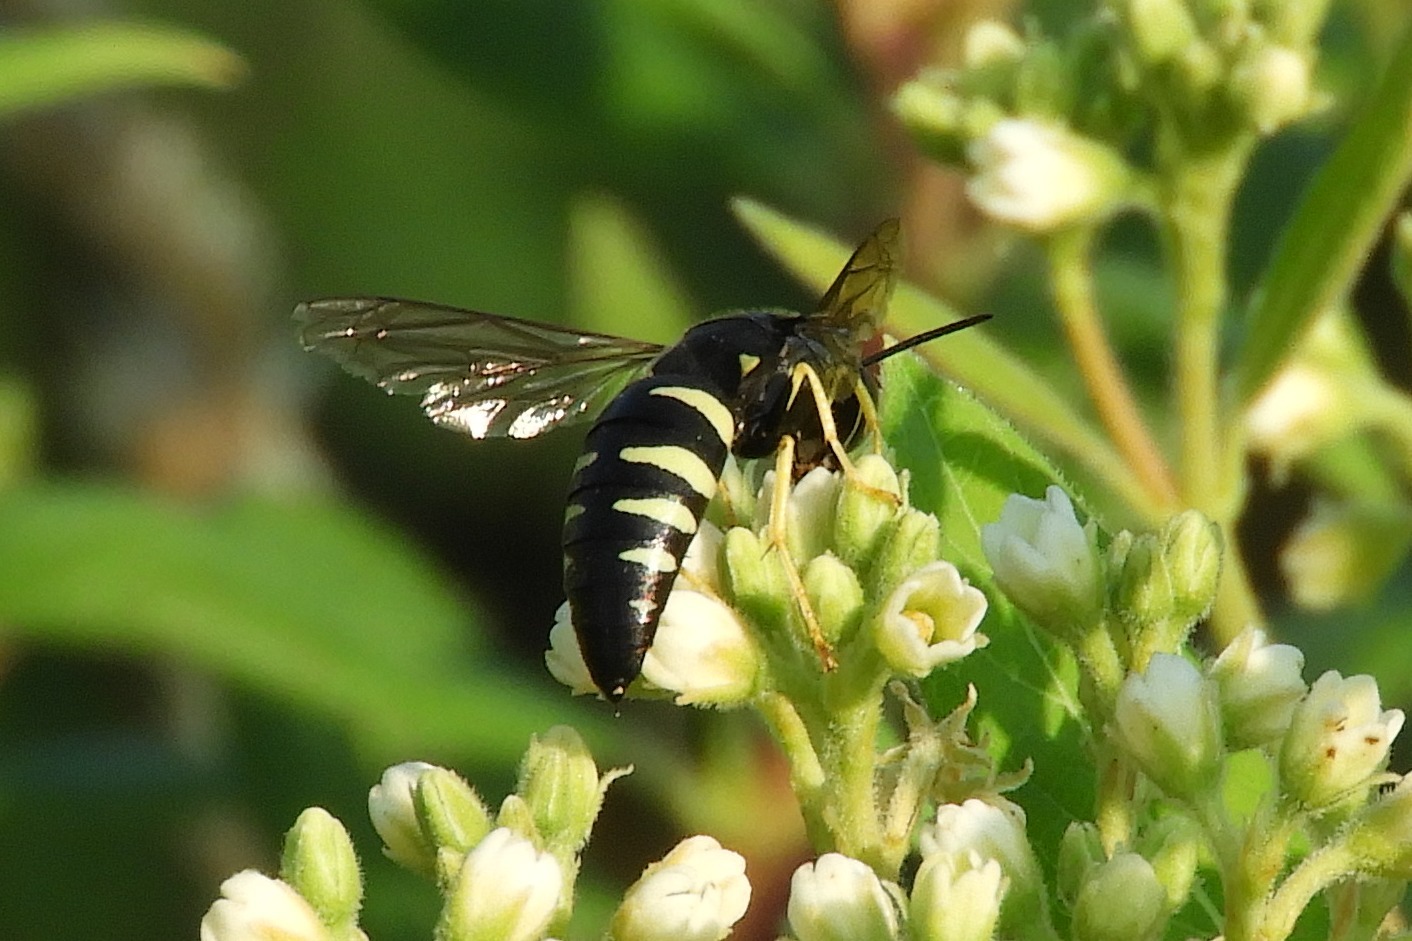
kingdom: Animalia
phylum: Arthropoda
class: Insecta
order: Hymenoptera
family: Crabronidae
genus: Bicyrtes
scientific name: Bicyrtes quadrifasciatus
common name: Four-banded stink bug hunter wasp
